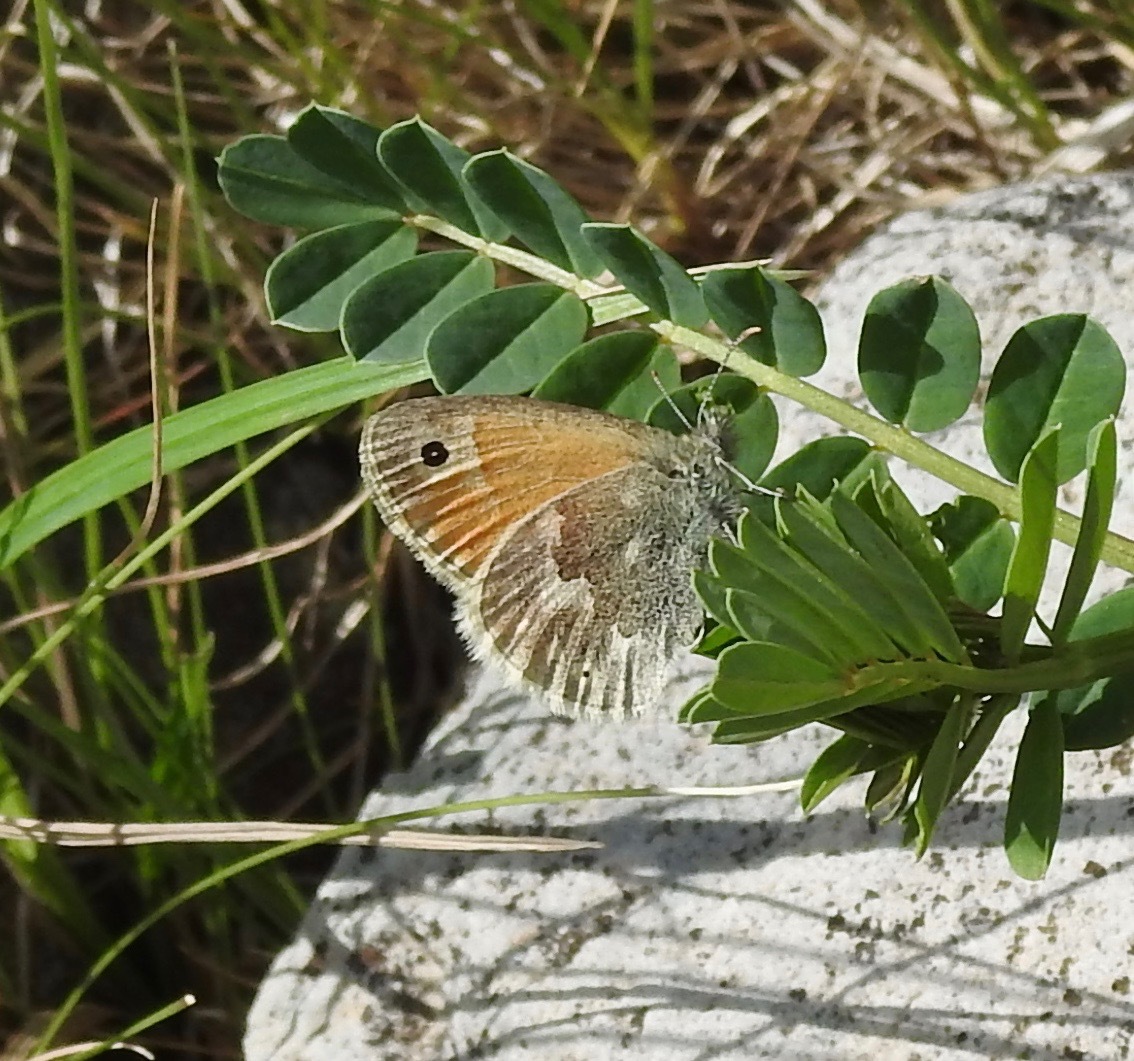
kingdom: Animalia
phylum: Arthropoda
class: Insecta
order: Lepidoptera
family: Nymphalidae
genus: Coenonympha
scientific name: Coenonympha california
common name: Common ringlet
